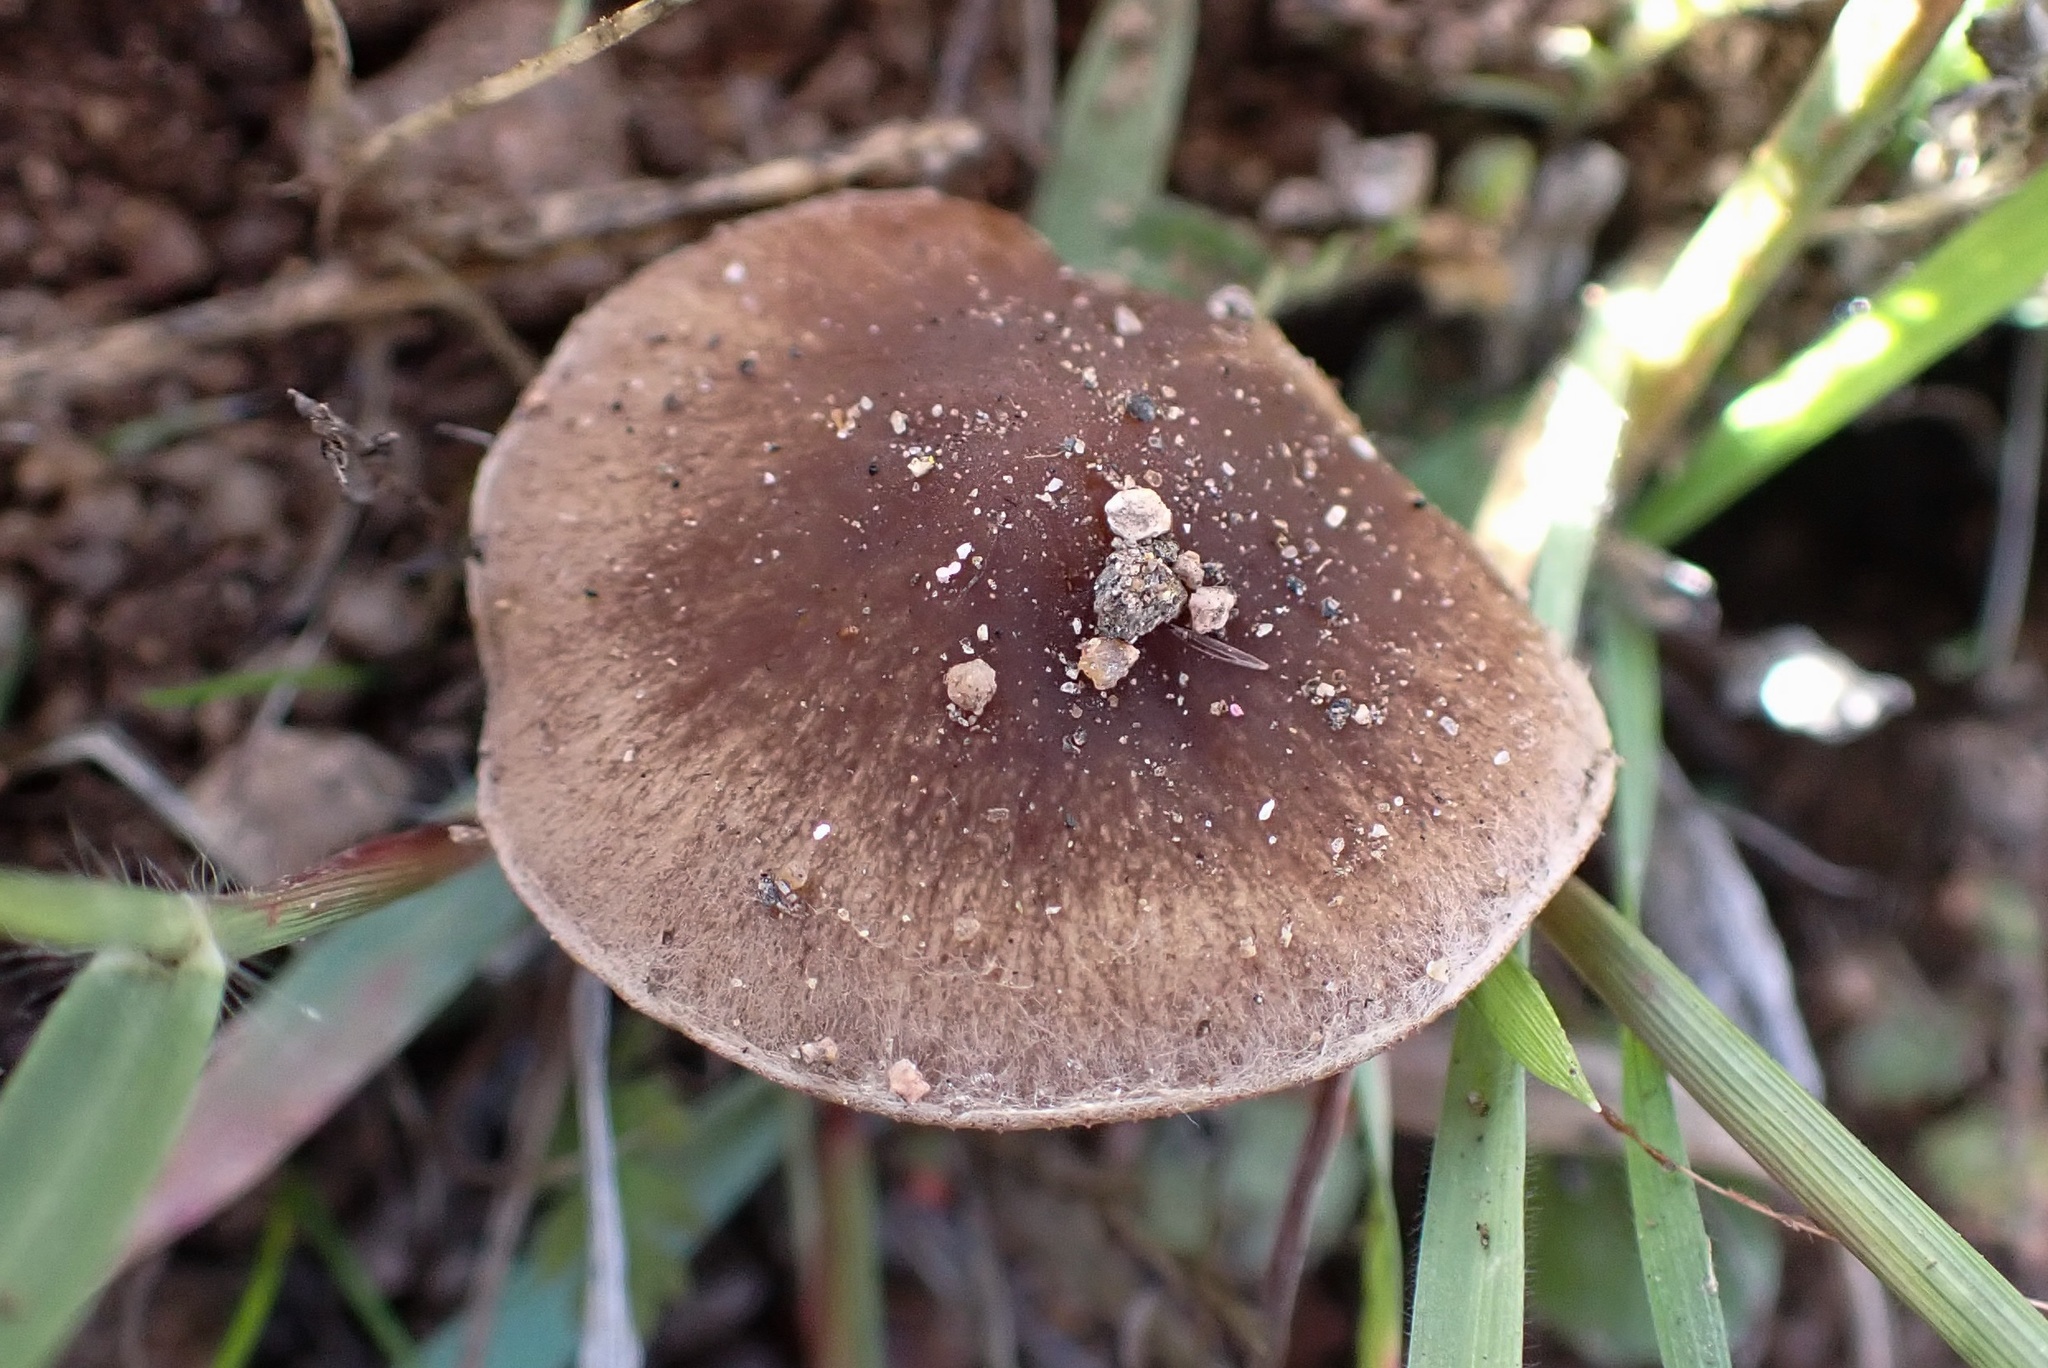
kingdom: Fungi
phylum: Basidiomycota
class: Agaricomycetes
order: Agaricales
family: Psathyrellaceae
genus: Psathyrella
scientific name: Psathyrella griseopallida
